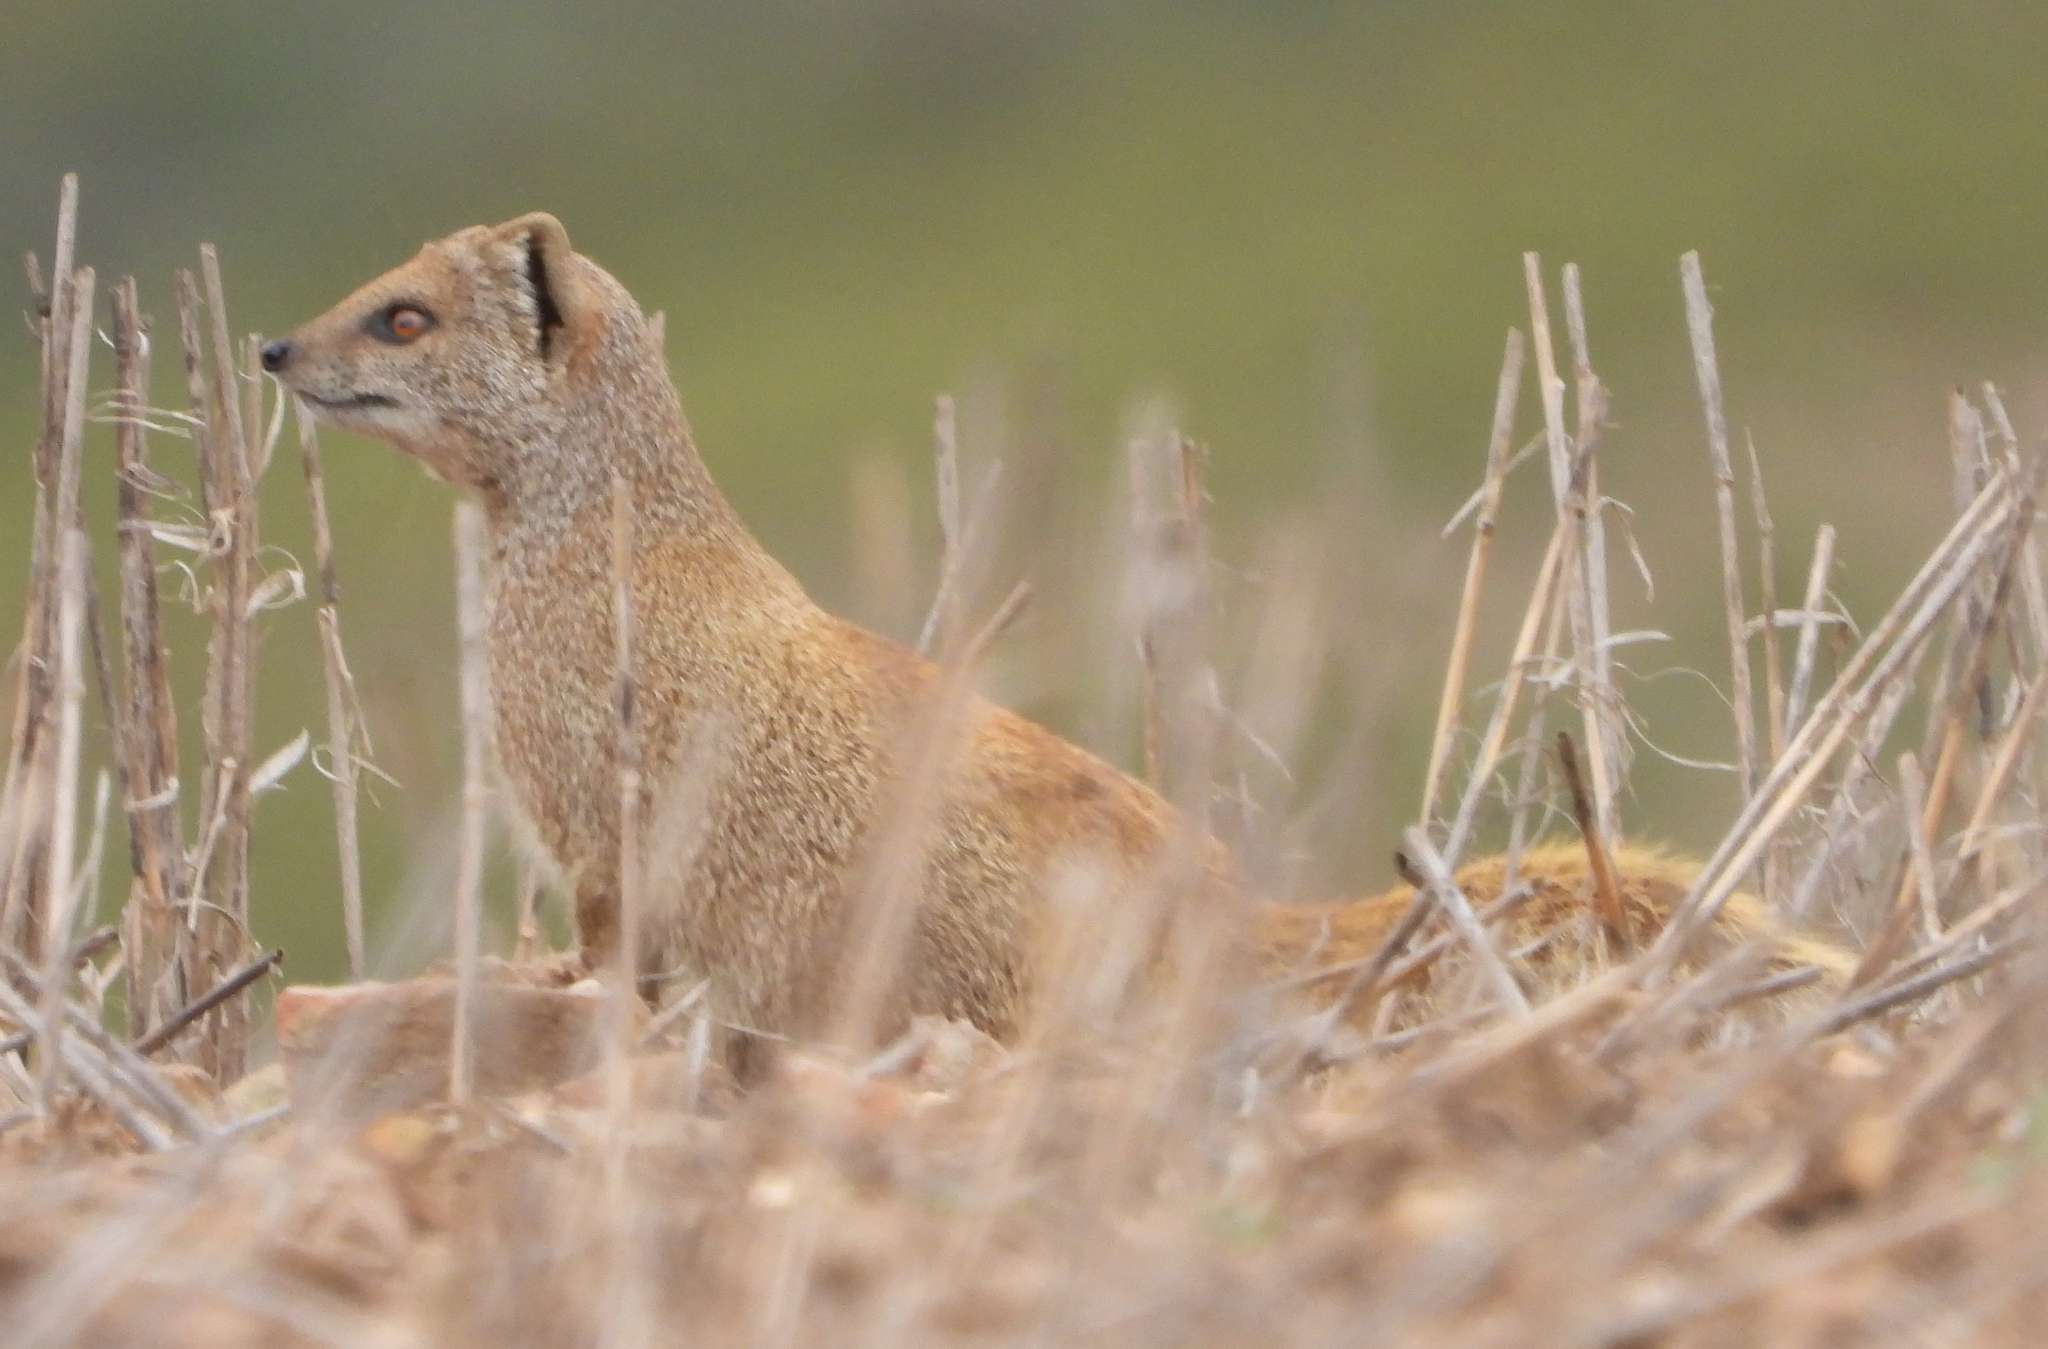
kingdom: Animalia
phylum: Chordata
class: Mammalia
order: Carnivora
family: Herpestidae
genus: Cynictis
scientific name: Cynictis penicillata
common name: Yellow mongoose
